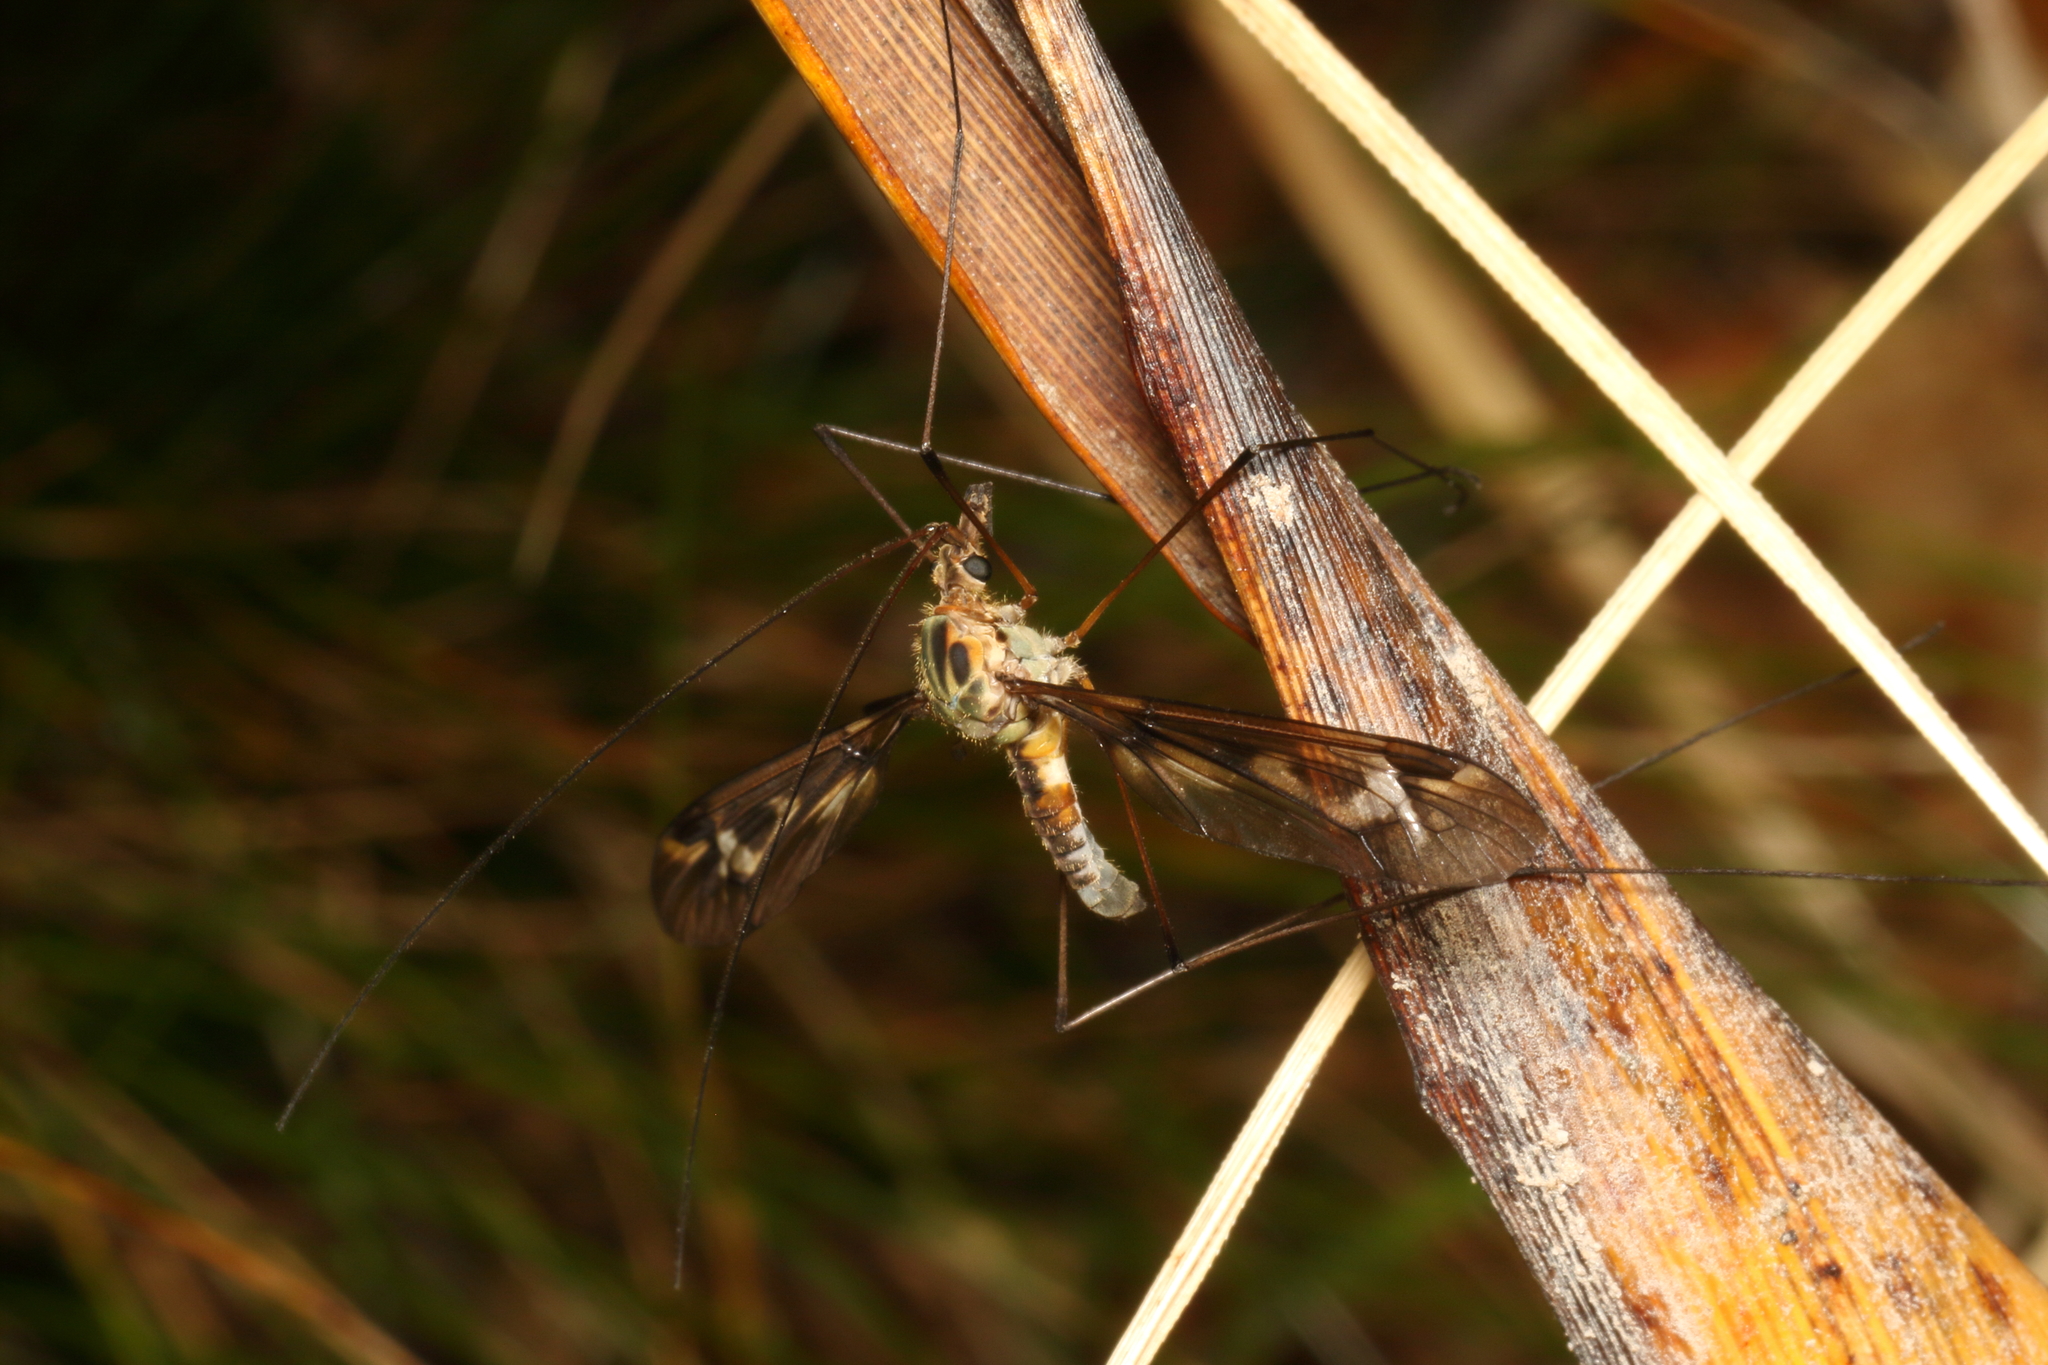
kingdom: Animalia
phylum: Arthropoda
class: Insecta
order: Diptera
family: Tipulidae
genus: Leptotarsus
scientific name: Leptotarsus lunatus
